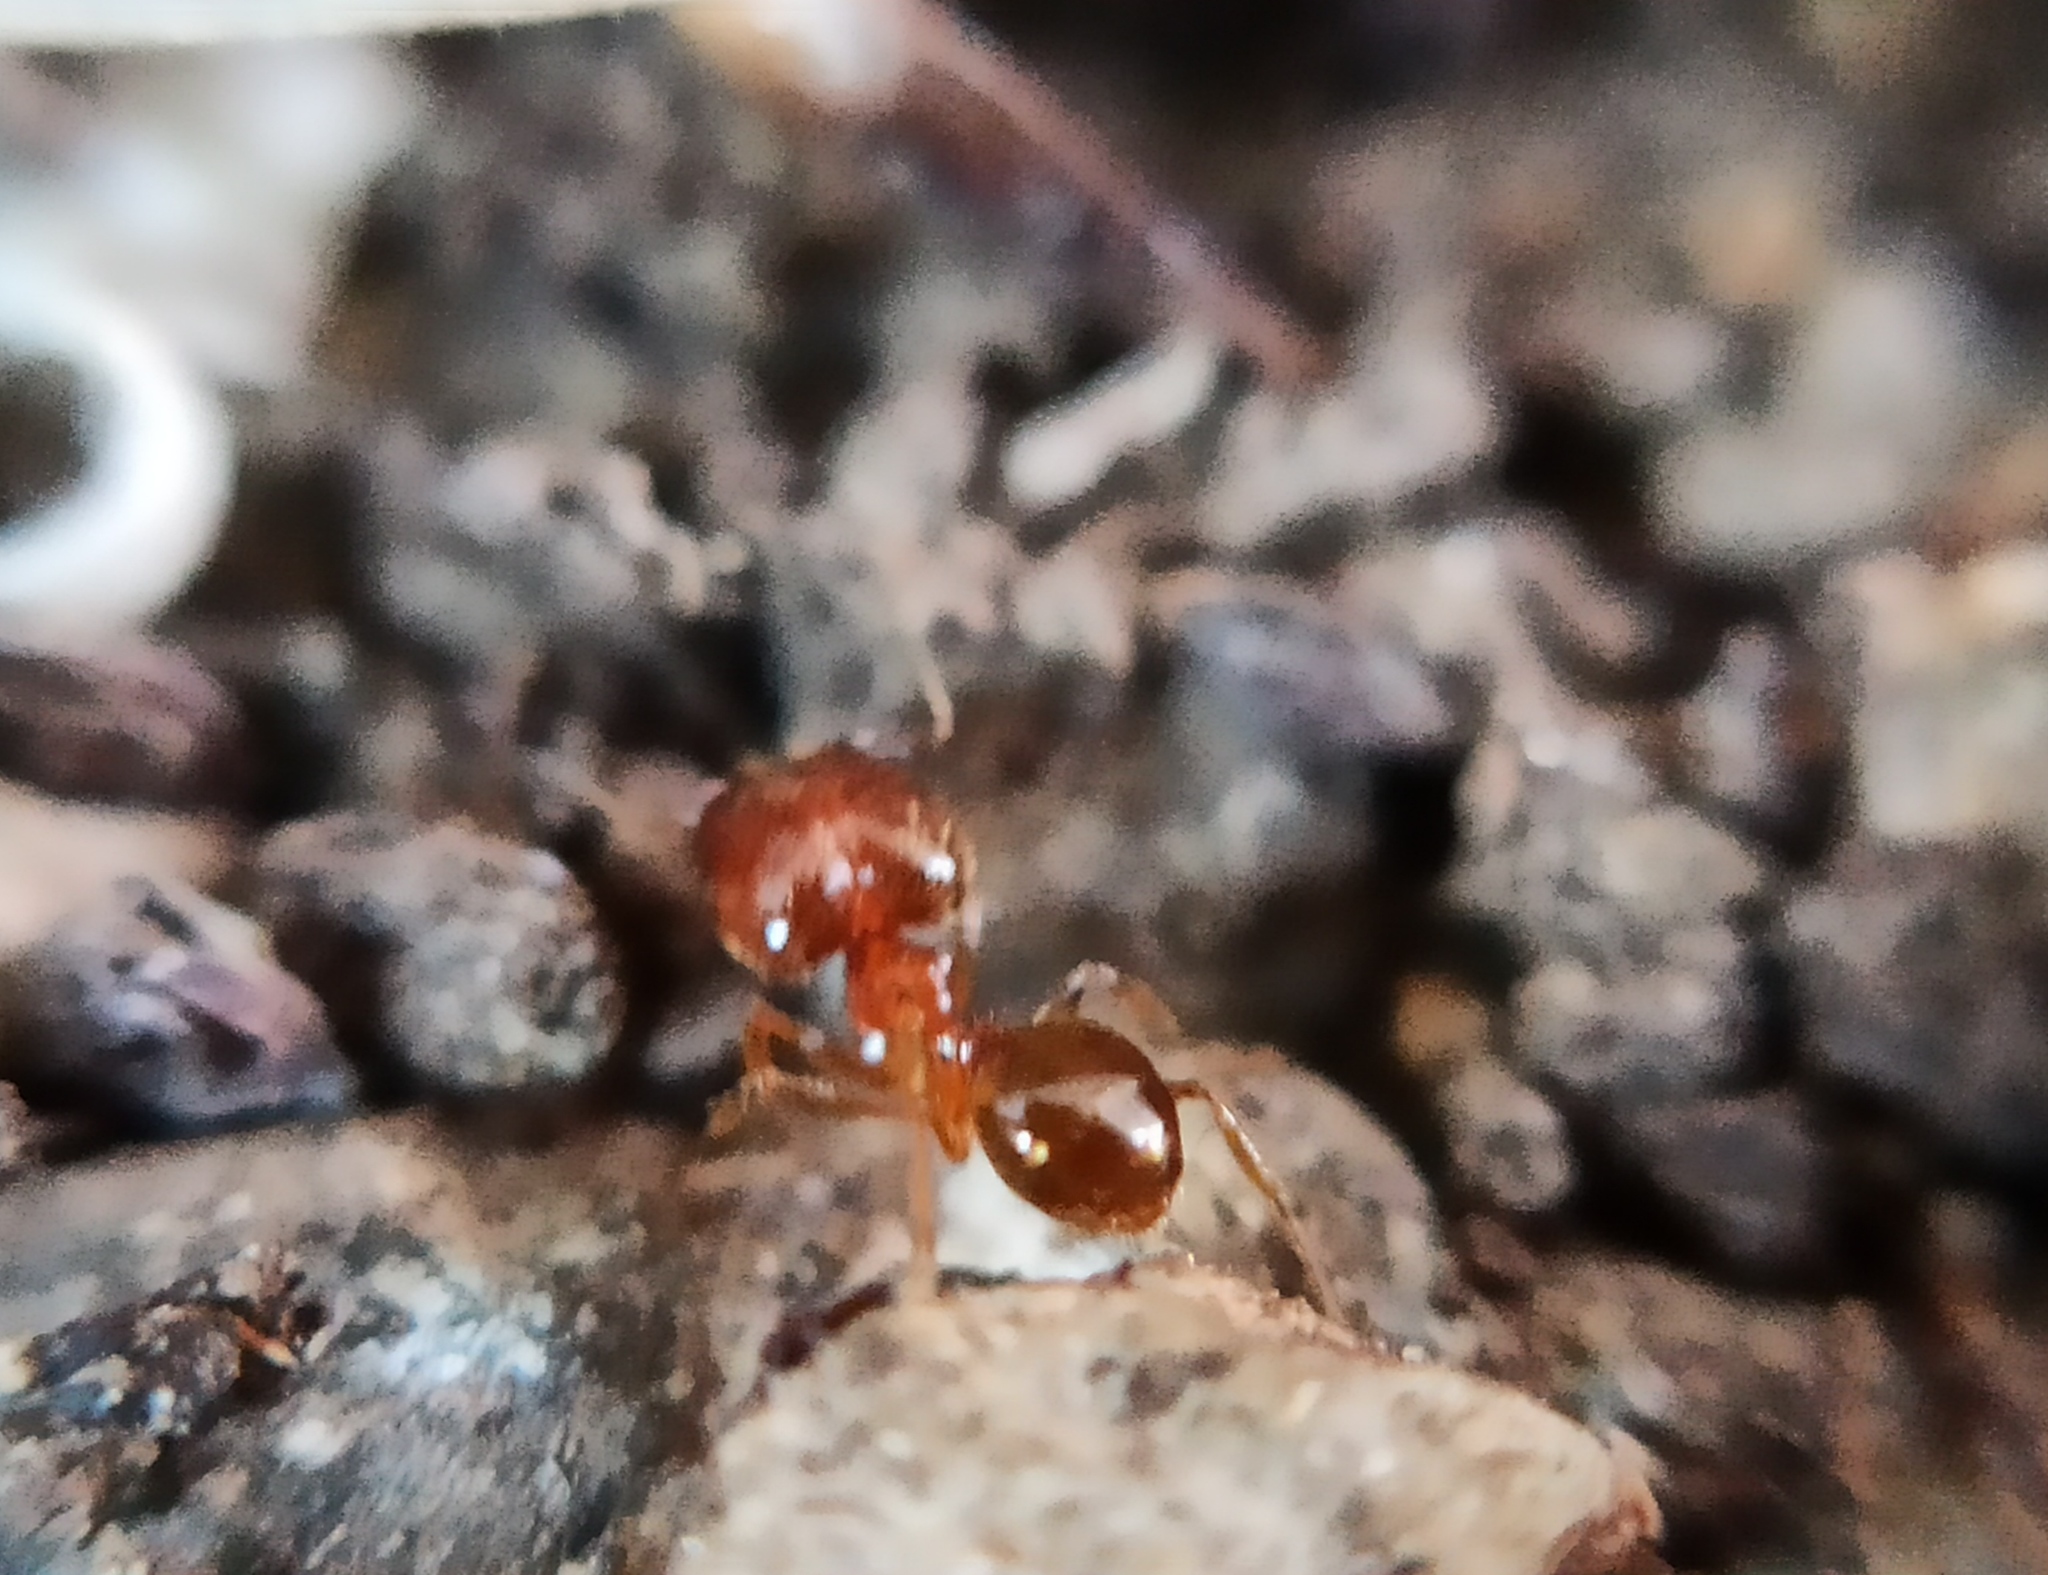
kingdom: Animalia
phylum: Arthropoda
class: Insecta
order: Hymenoptera
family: Formicidae
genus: Pheidole
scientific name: Pheidole pallidula
